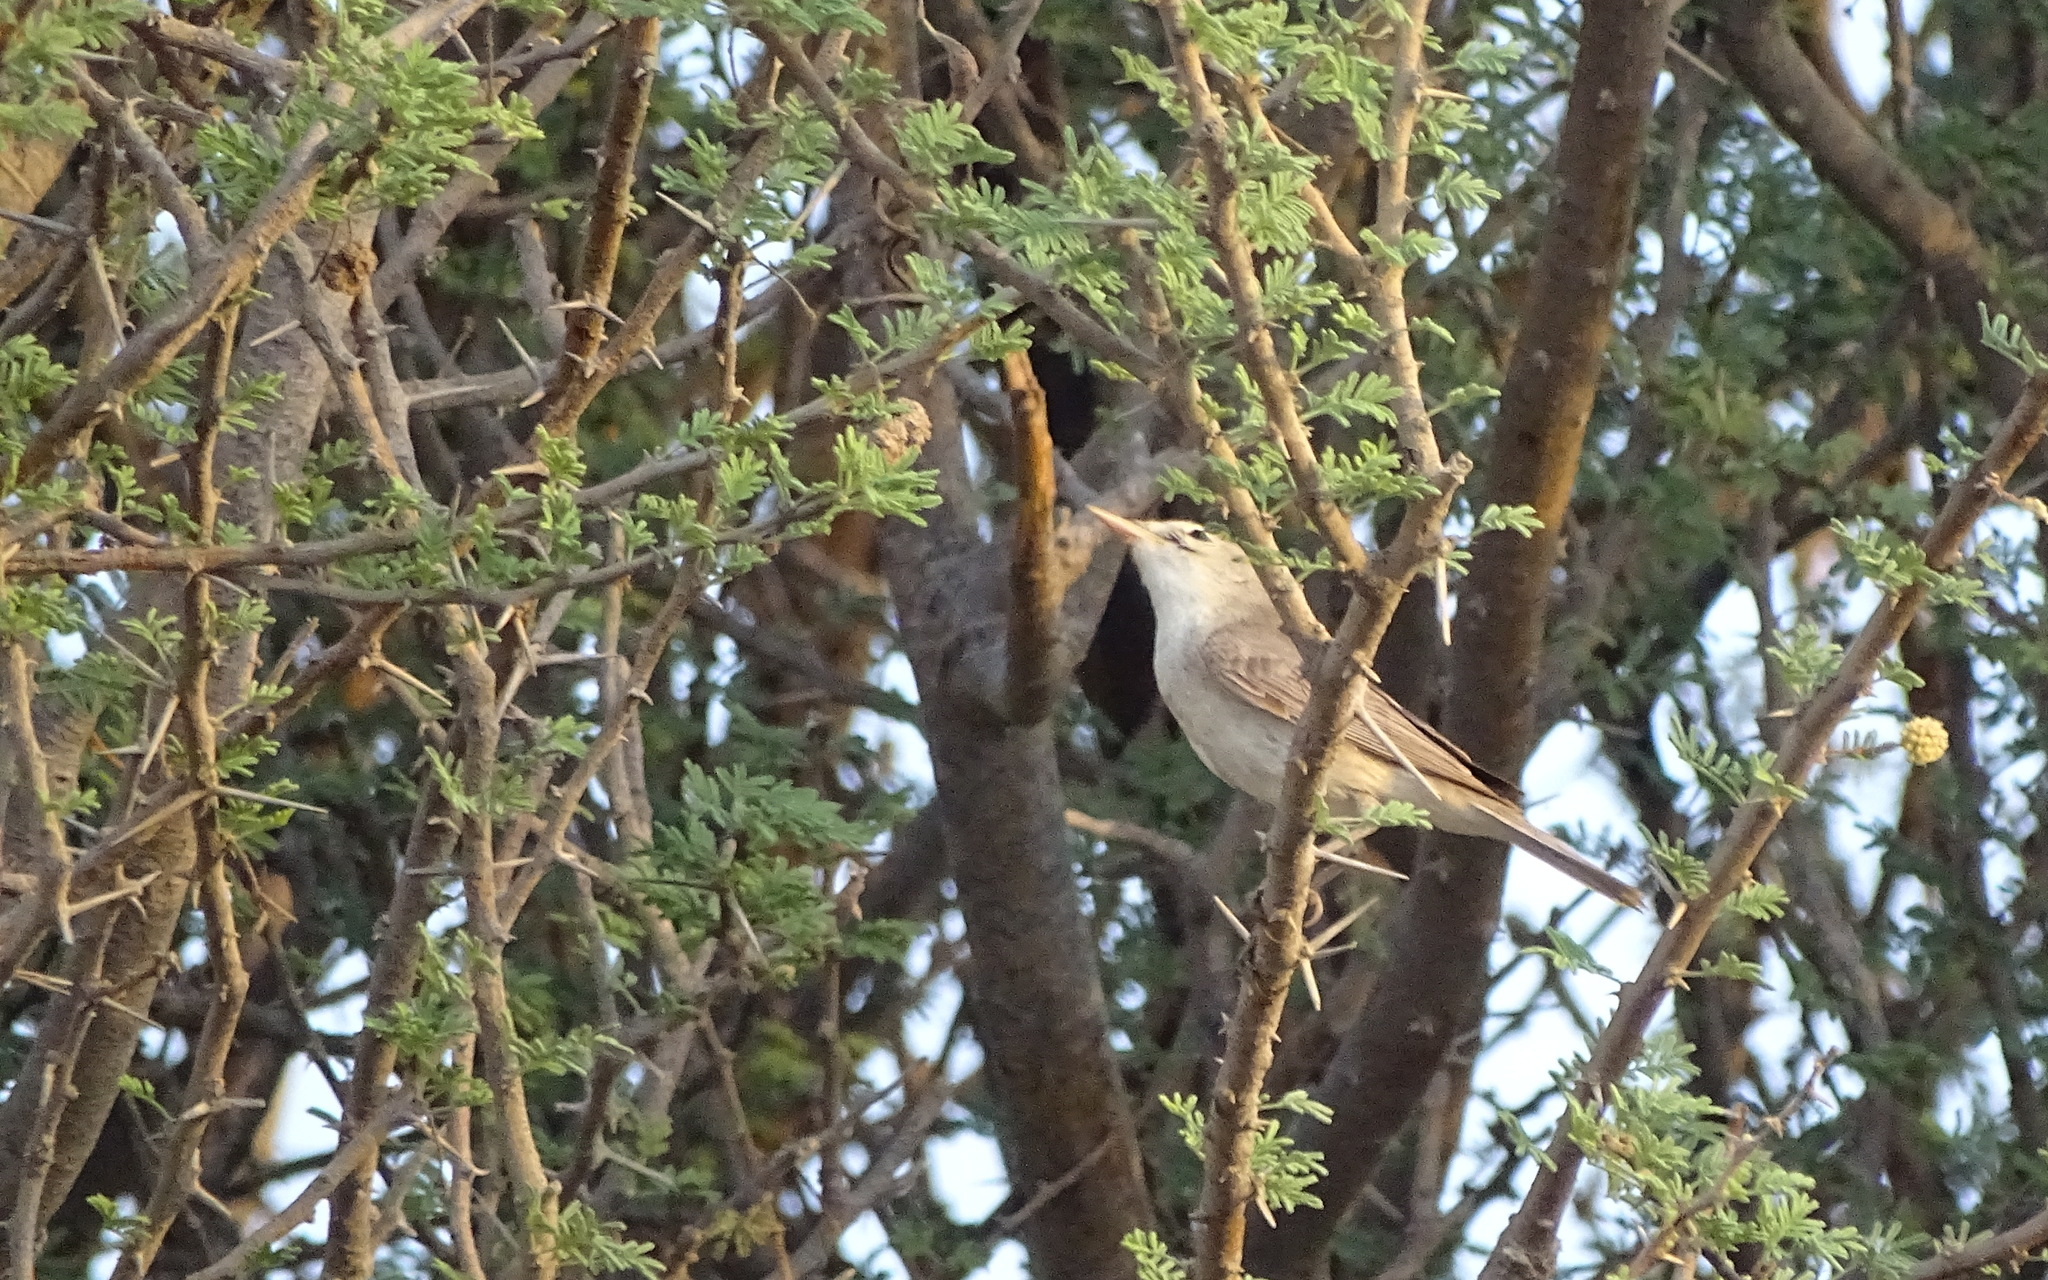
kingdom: Animalia
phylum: Chordata
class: Aves
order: Passeriformes
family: Acrocephalidae
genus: Iduna
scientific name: Iduna pallida
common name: Eastern olivaceous warbler
